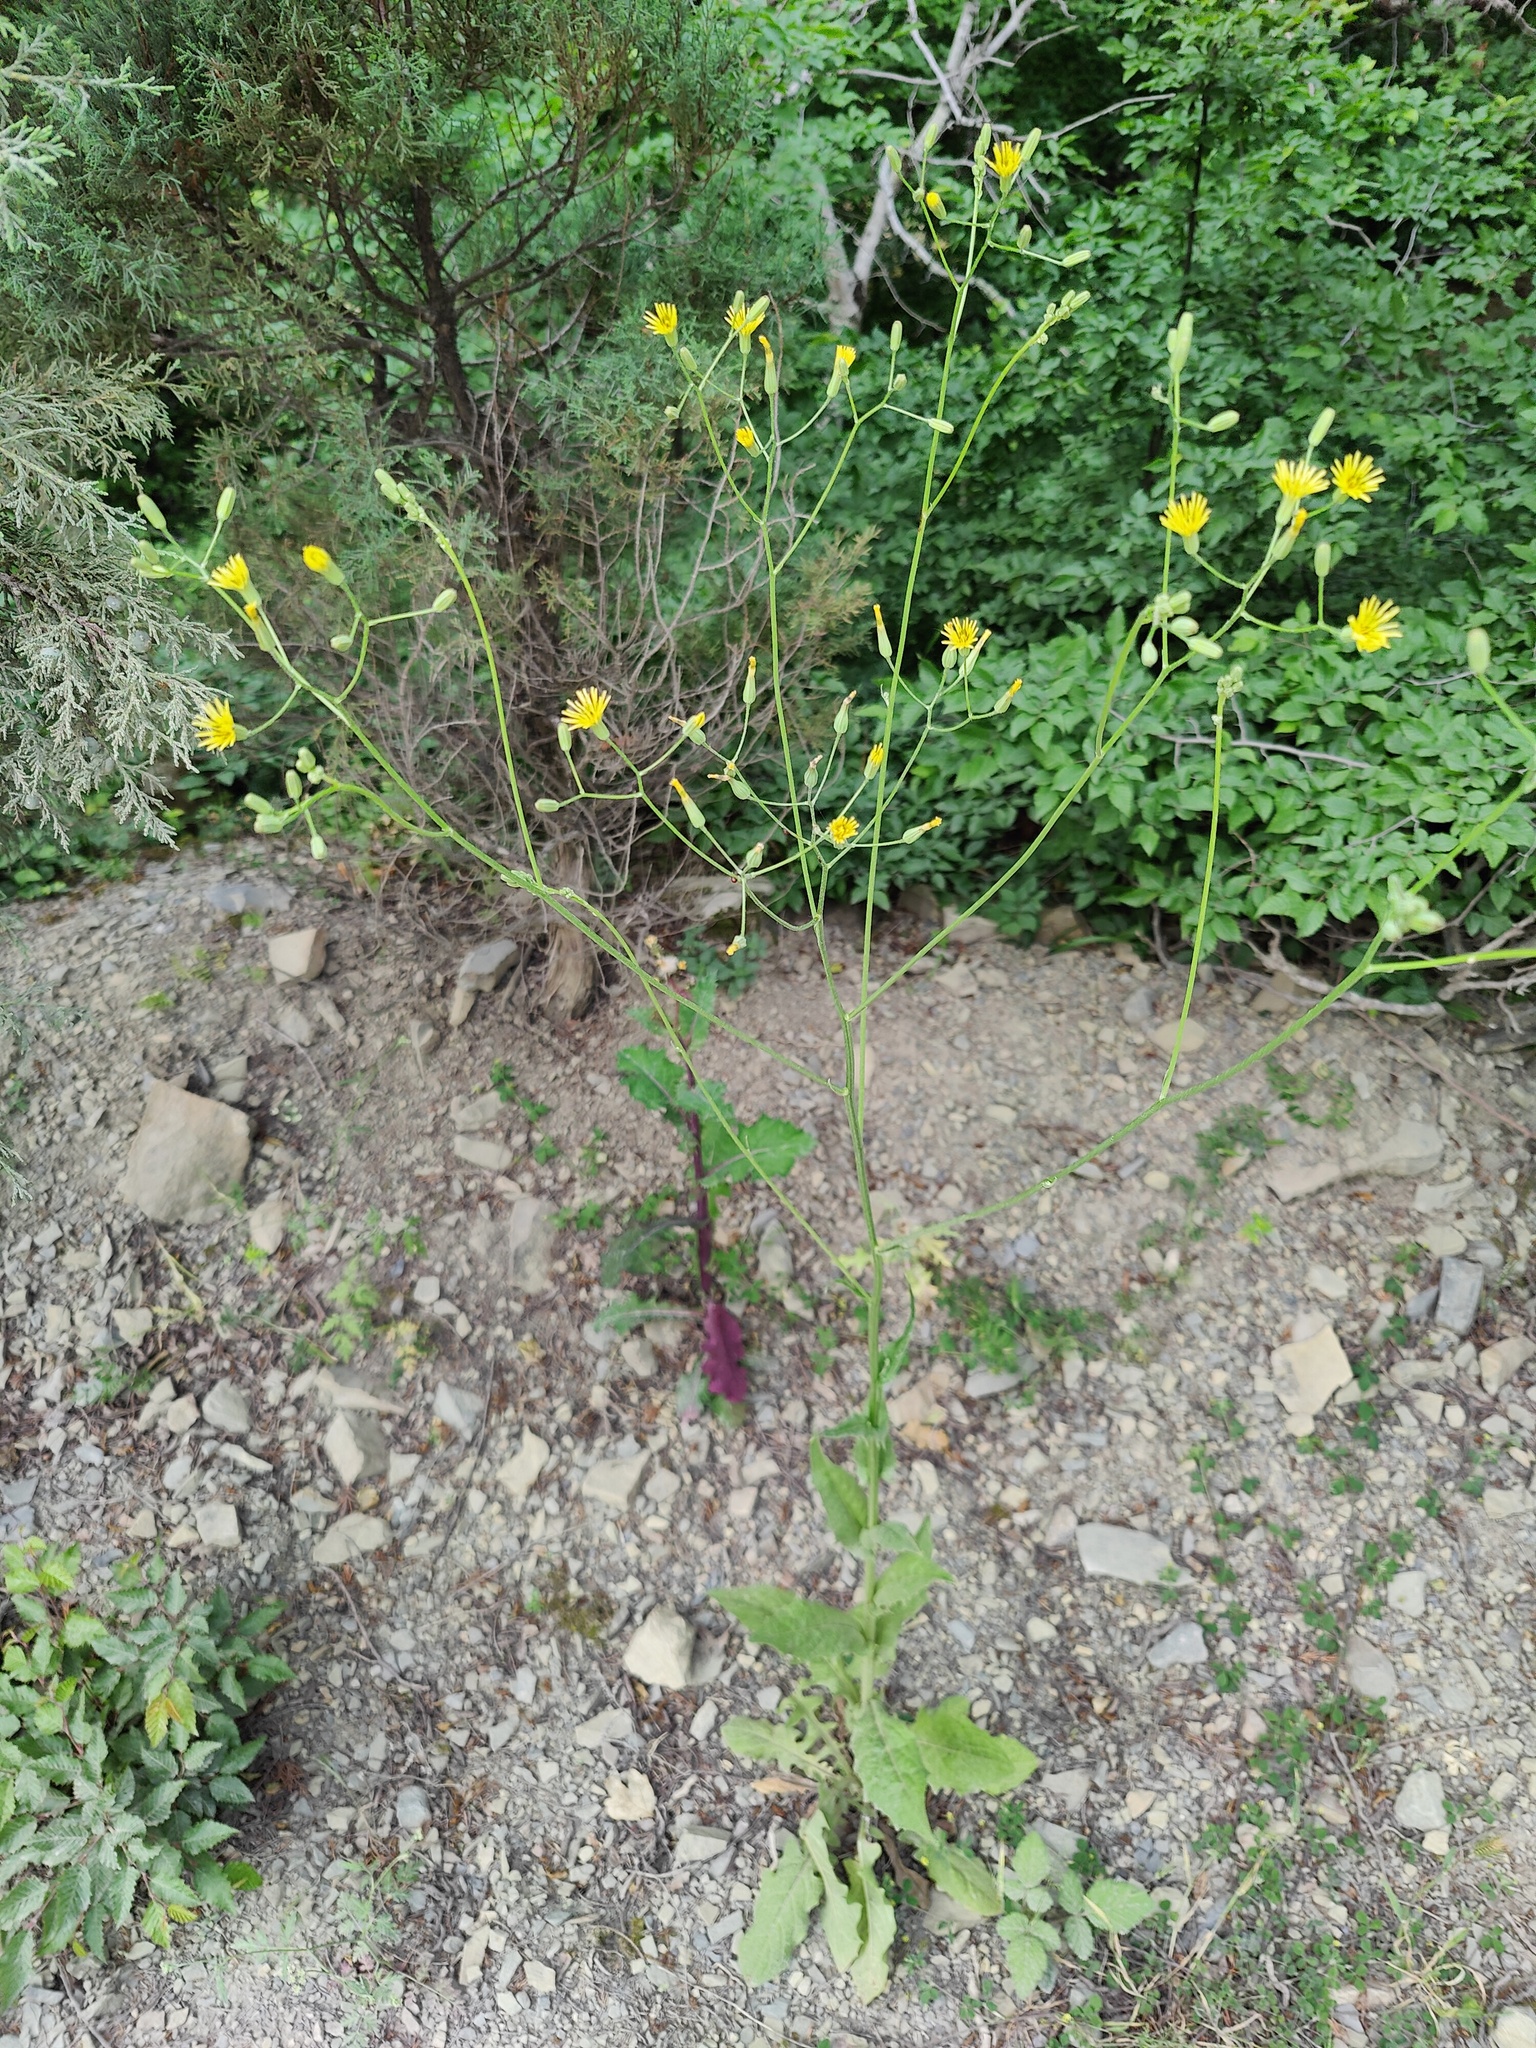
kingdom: Plantae
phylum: Tracheophyta
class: Magnoliopsida
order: Asterales
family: Asteraceae
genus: Crepis
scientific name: Crepis pulchra
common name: Hawk's-beard
